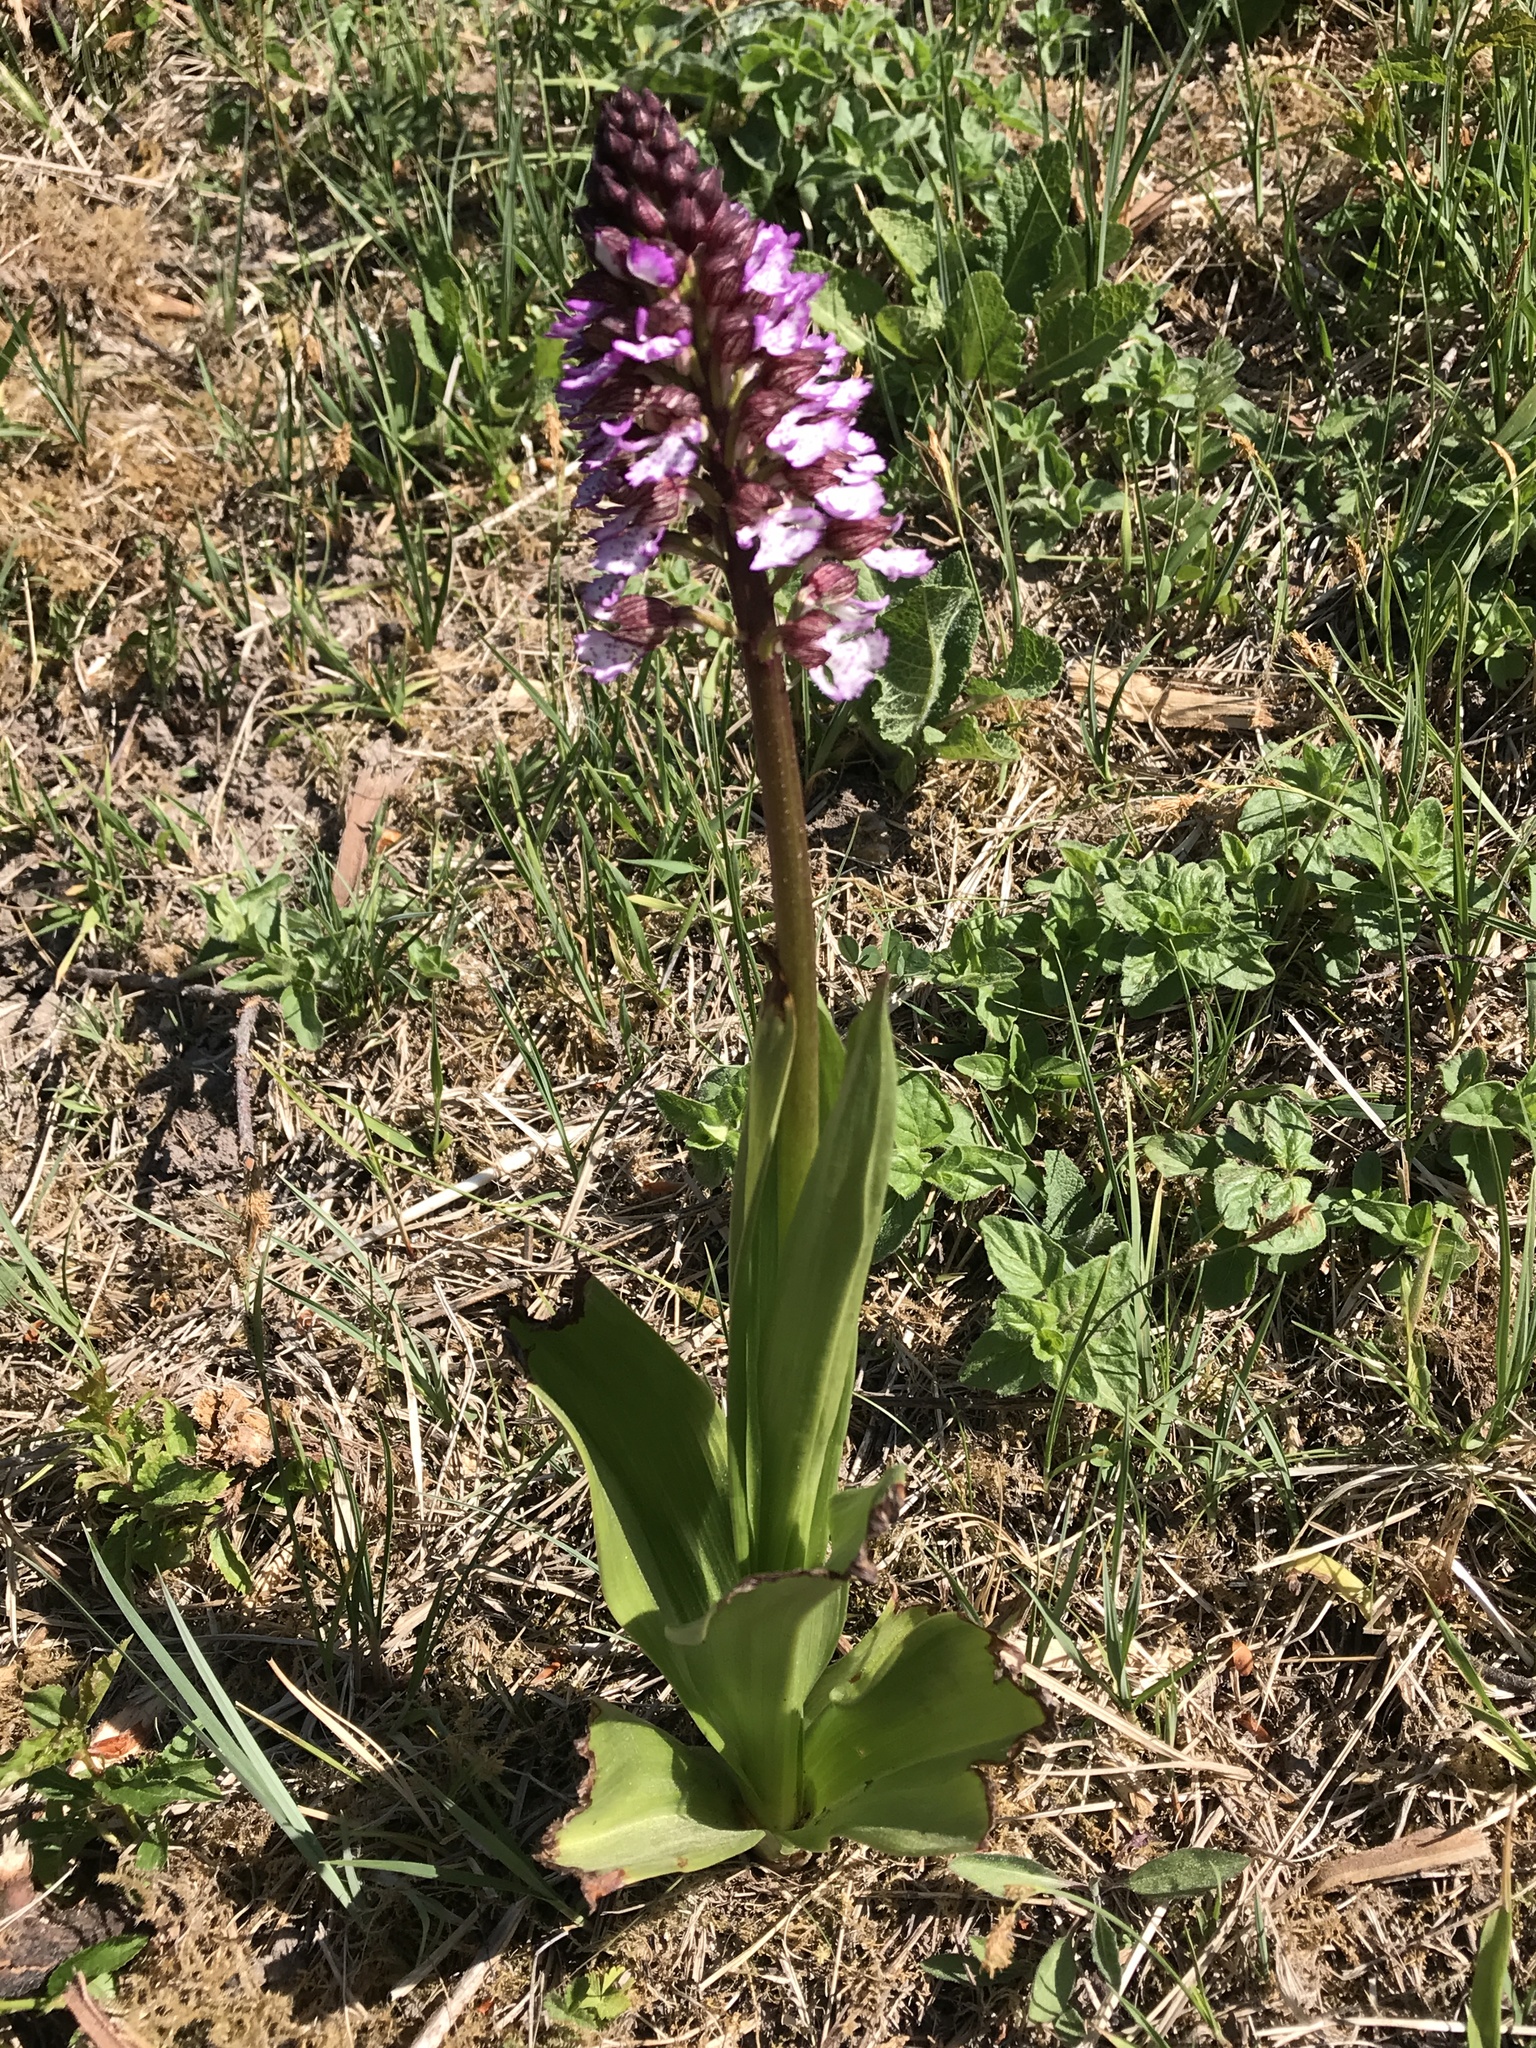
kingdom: Plantae
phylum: Tracheophyta
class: Liliopsida
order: Asparagales
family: Orchidaceae
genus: Orchis
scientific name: Orchis purpurea
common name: Lady orchid
